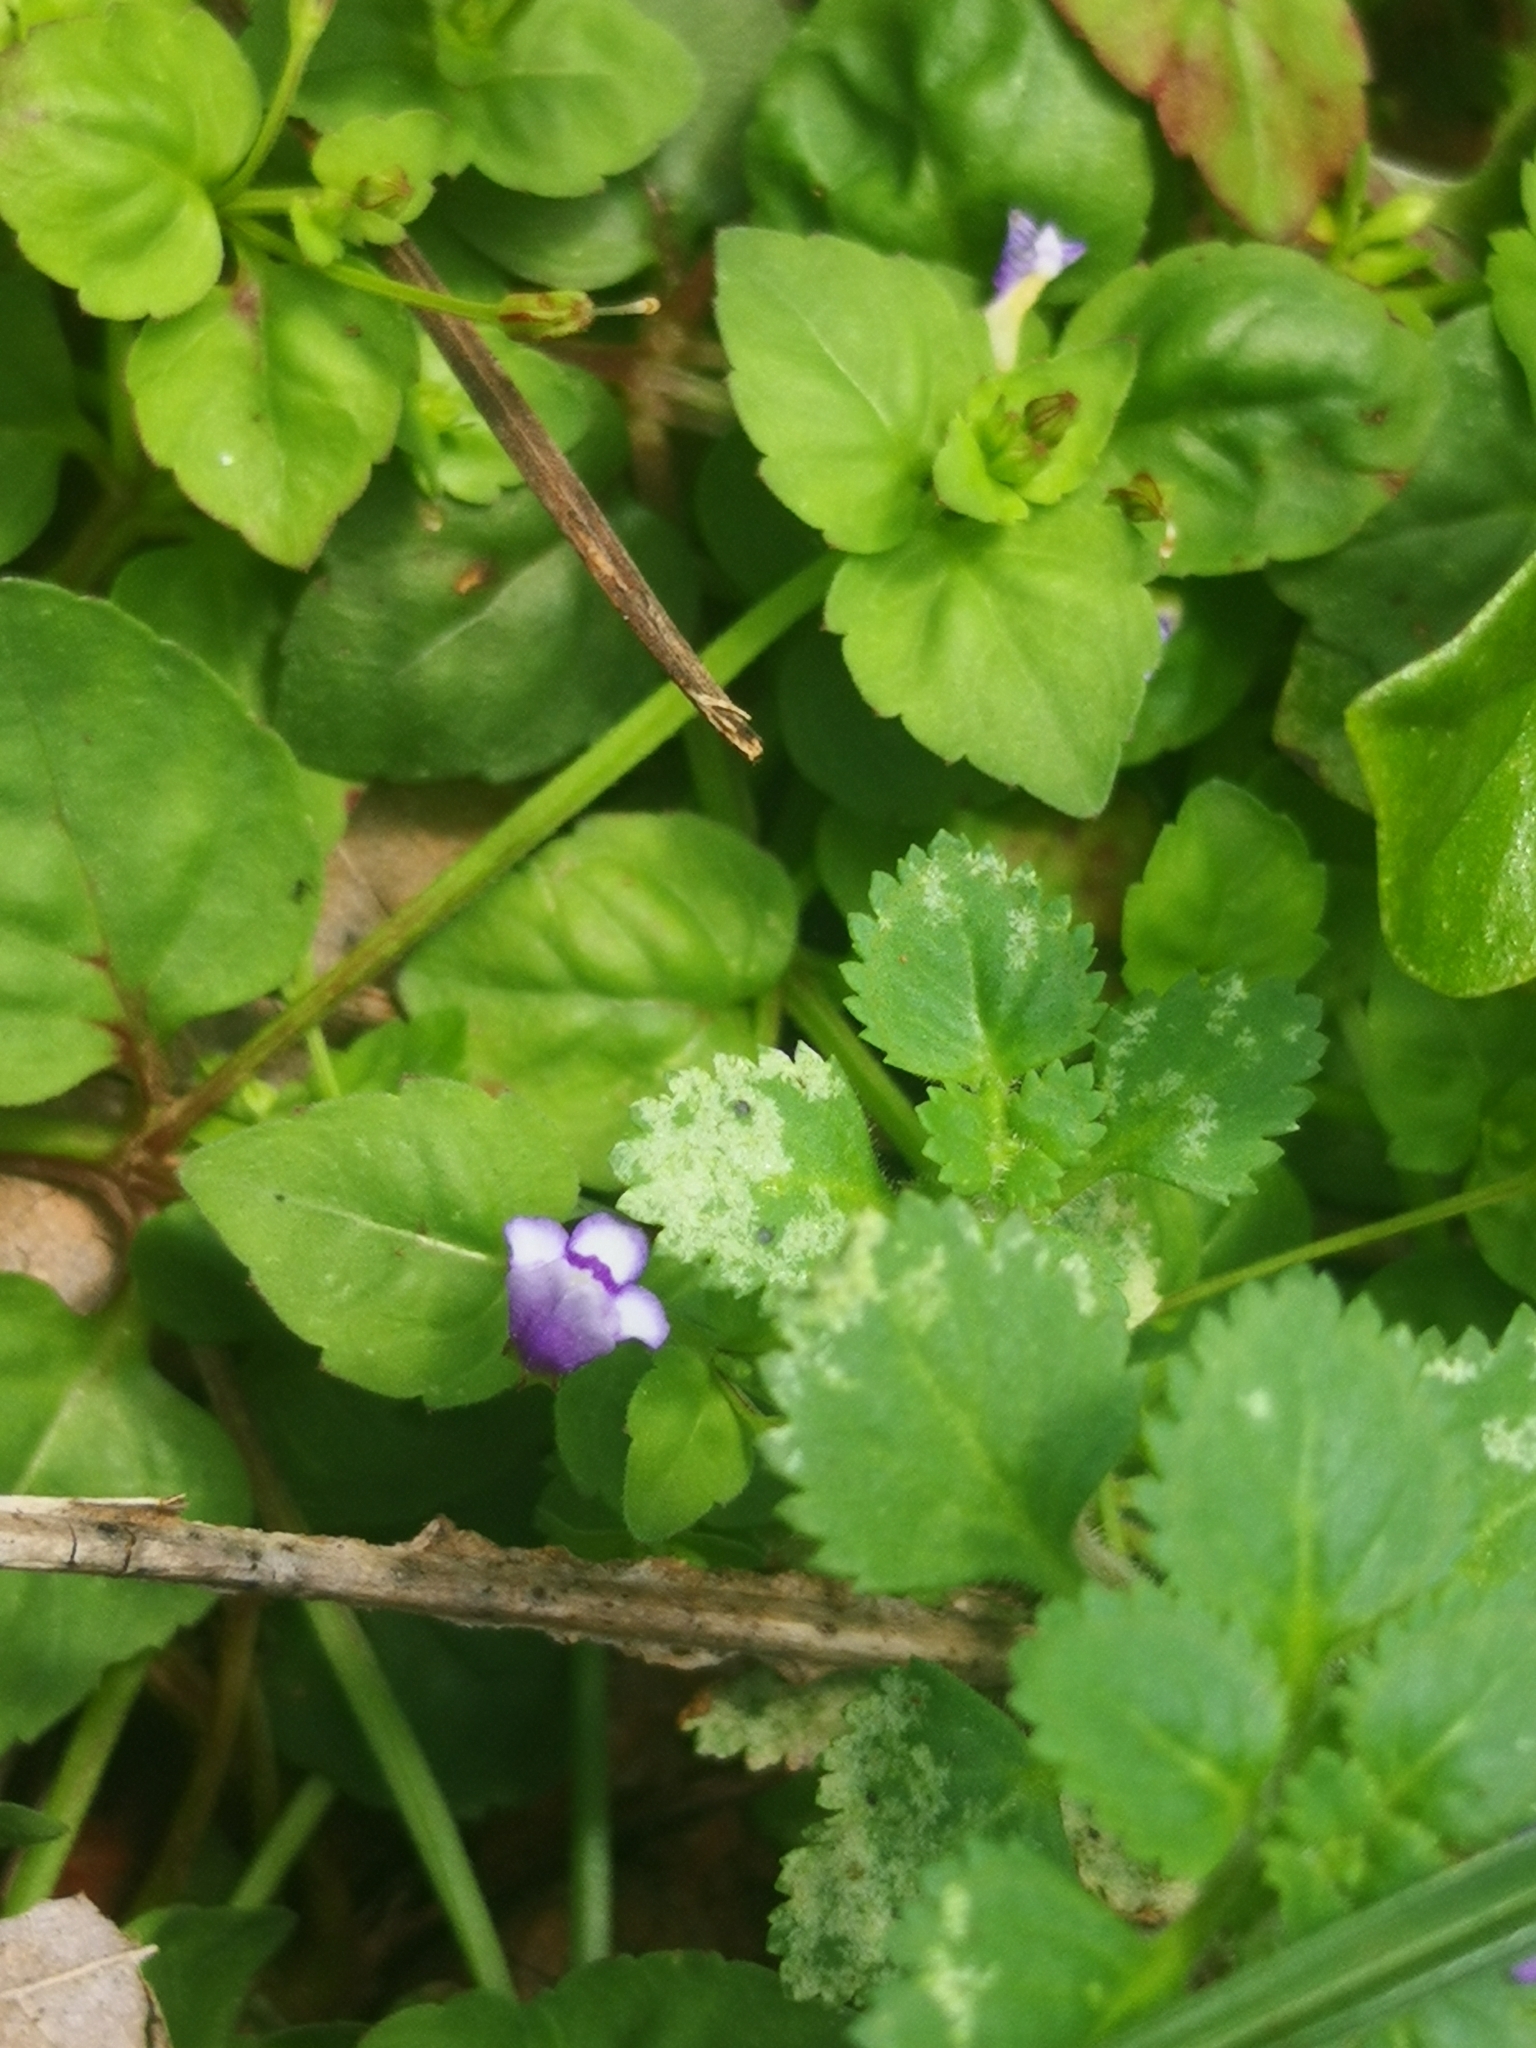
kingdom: Plantae
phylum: Tracheophyta
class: Magnoliopsida
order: Lamiales
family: Linderniaceae
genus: Torenia
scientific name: Torenia crustacea
